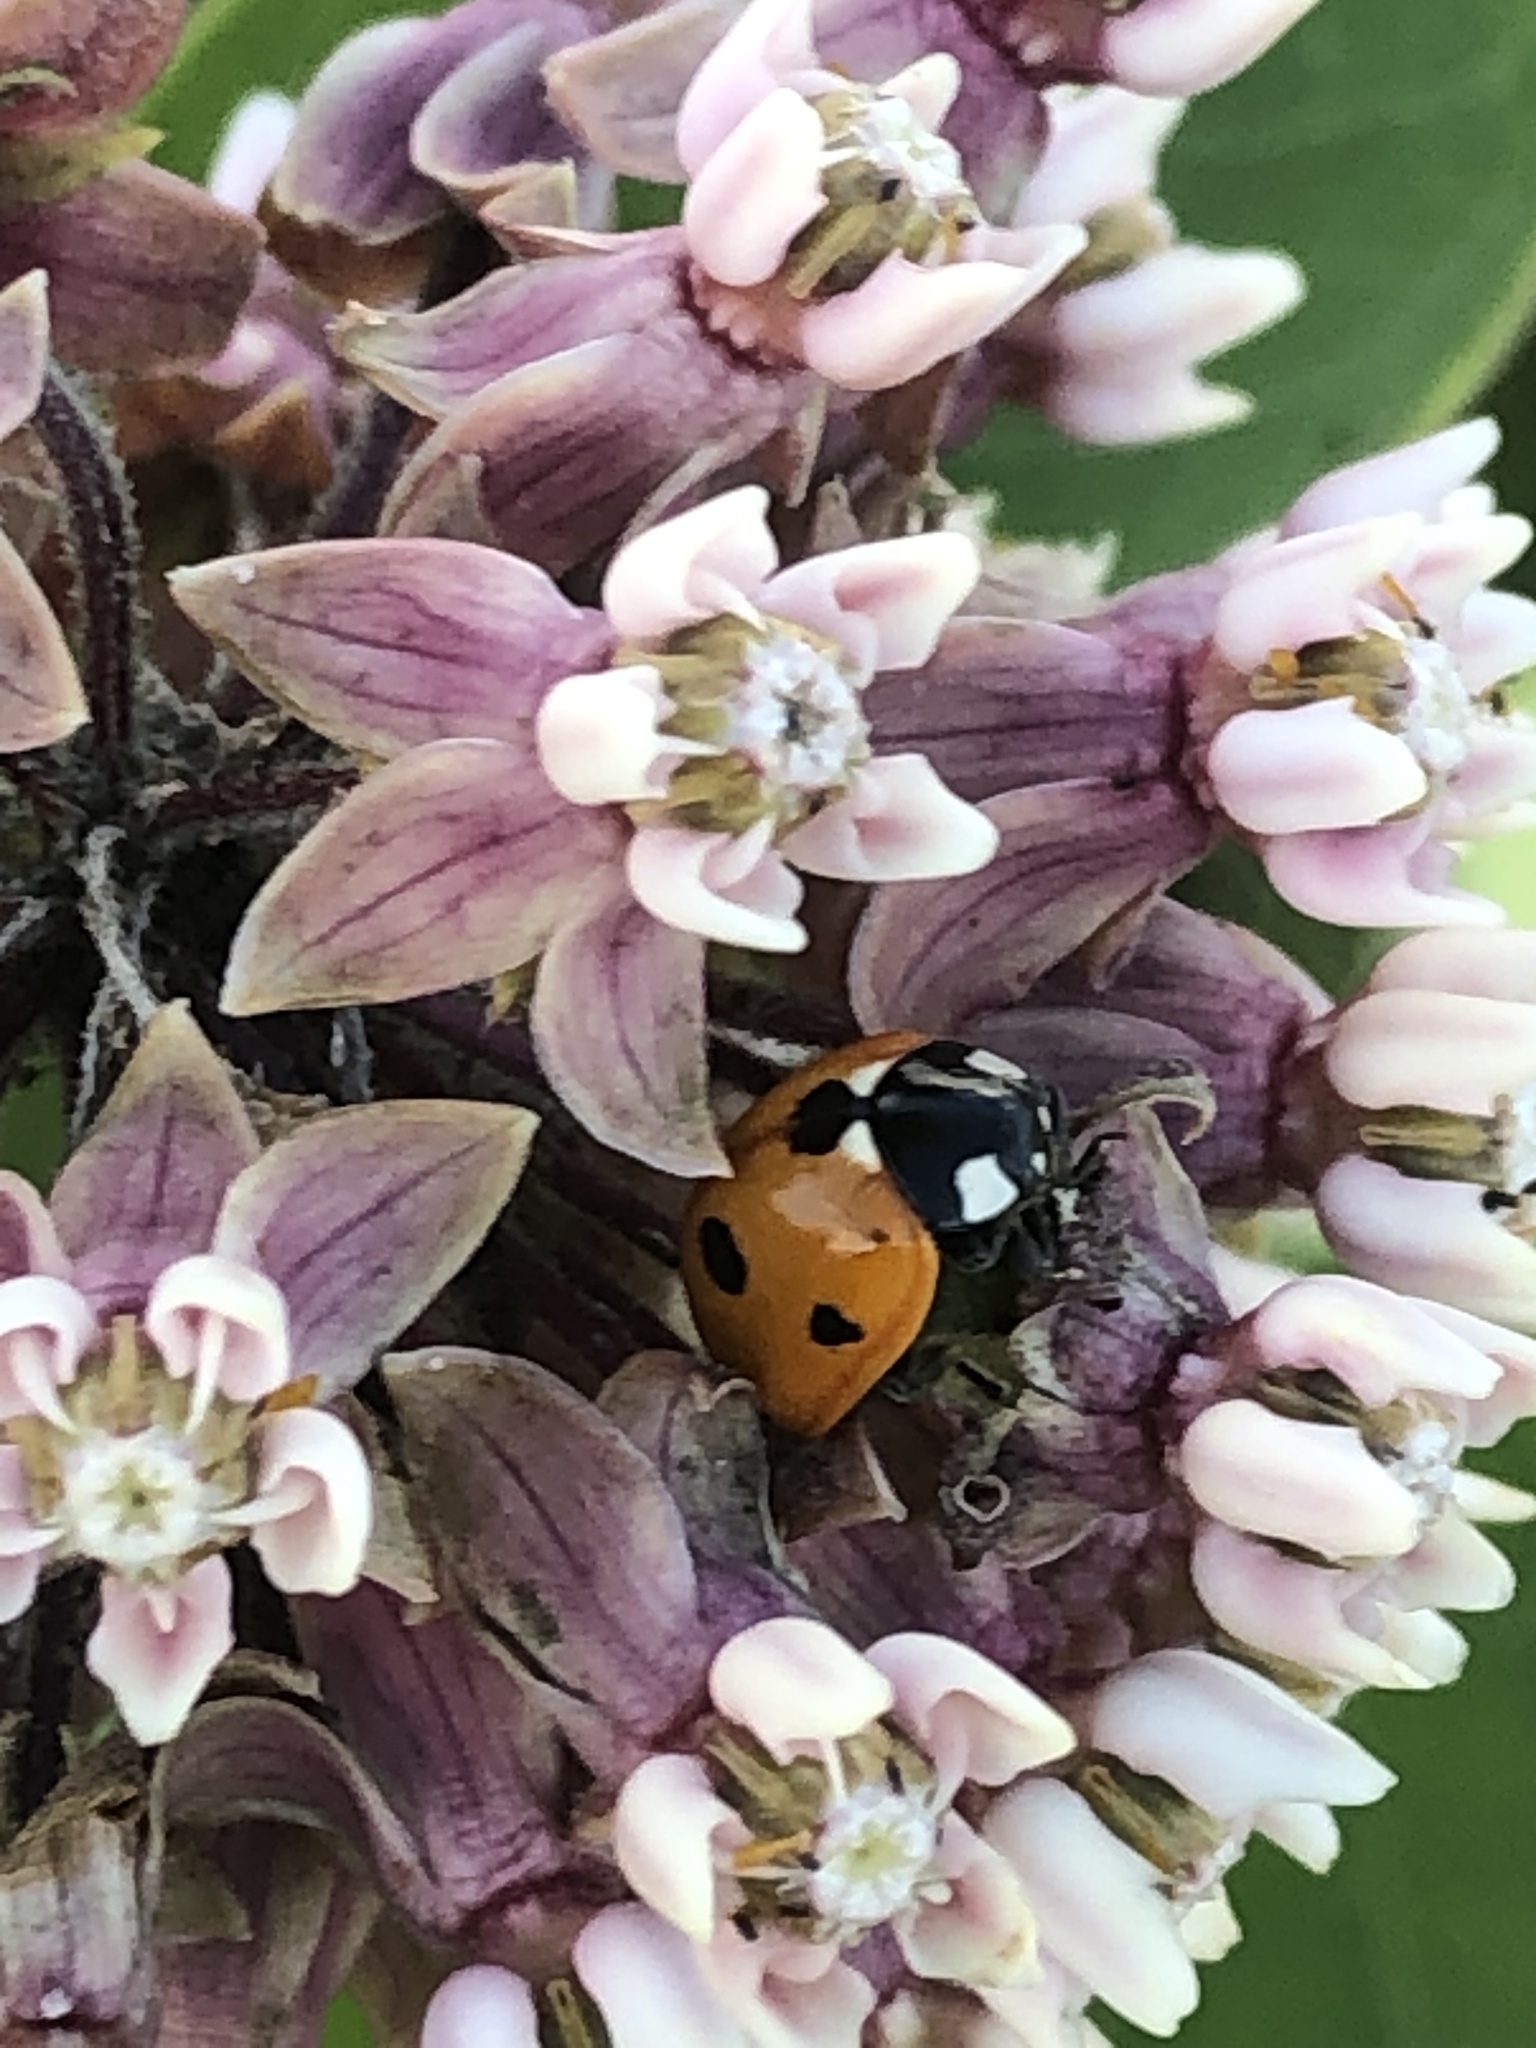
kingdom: Animalia
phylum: Arthropoda
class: Insecta
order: Coleoptera
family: Coccinellidae
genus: Coccinella
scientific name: Coccinella septempunctata
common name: Sevenspotted lady beetle
